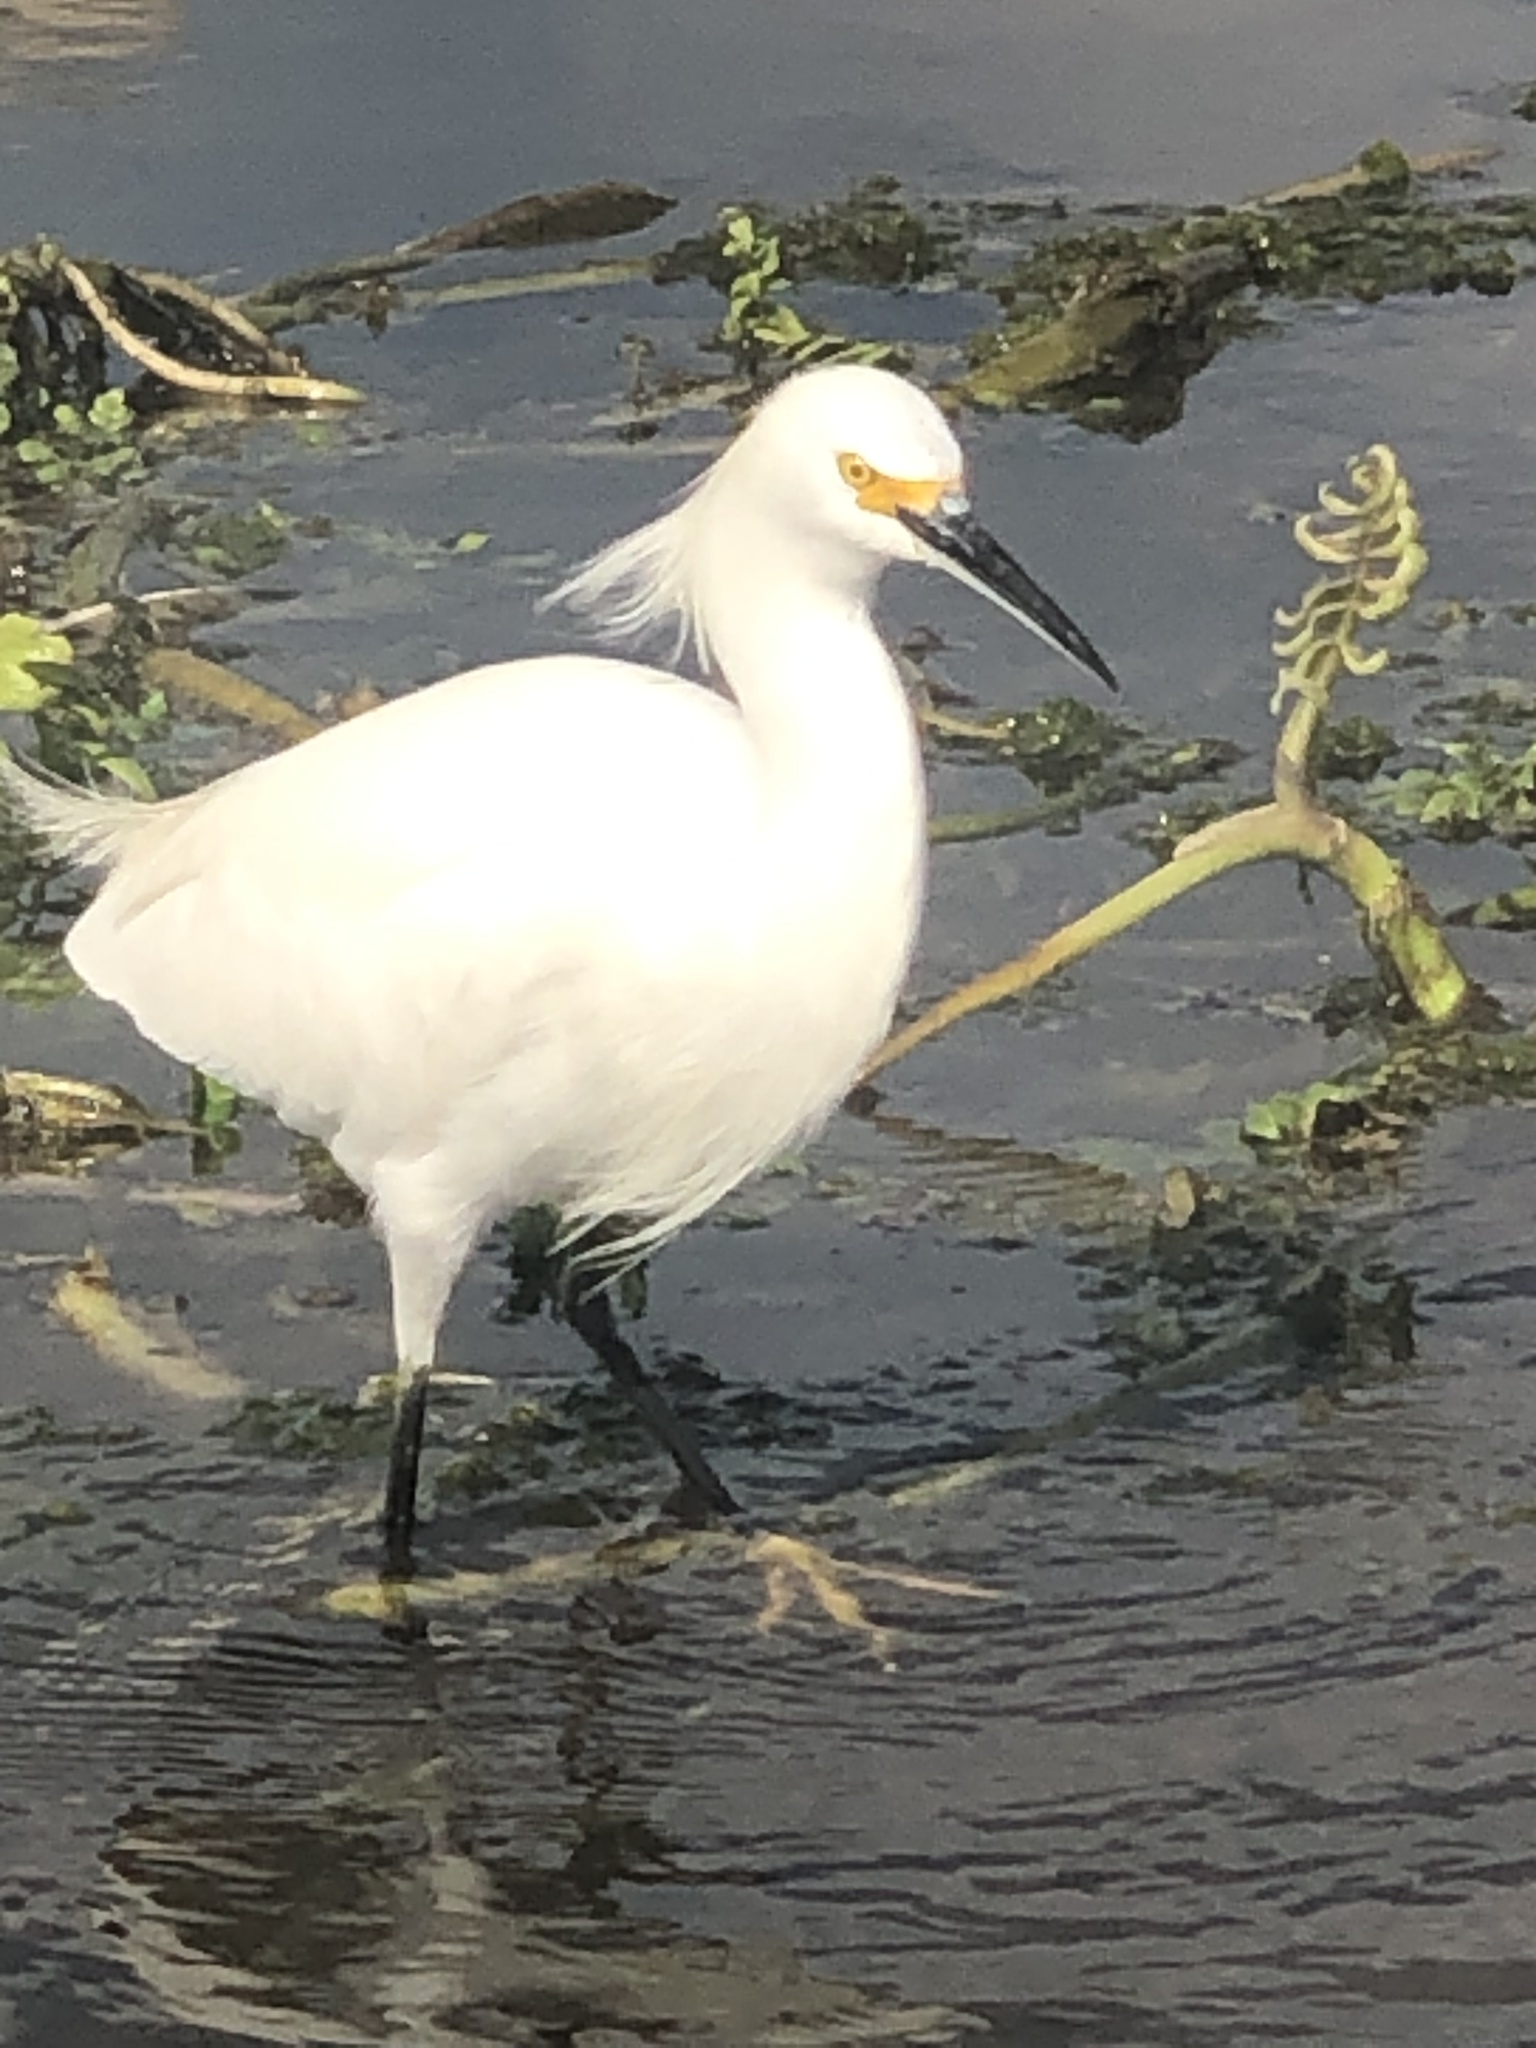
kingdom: Animalia
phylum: Chordata
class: Aves
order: Pelecaniformes
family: Ardeidae
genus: Egretta
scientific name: Egretta thula
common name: Snowy egret
